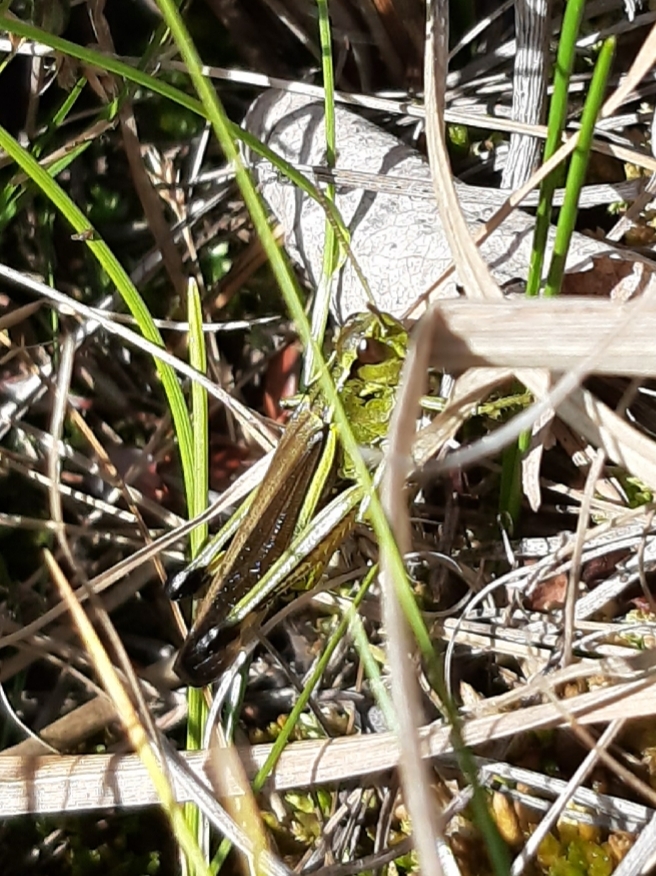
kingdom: Animalia
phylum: Arthropoda
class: Insecta
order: Orthoptera
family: Acrididae
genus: Stethophyma
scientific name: Stethophyma grossum
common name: Large marsh grasshopper
